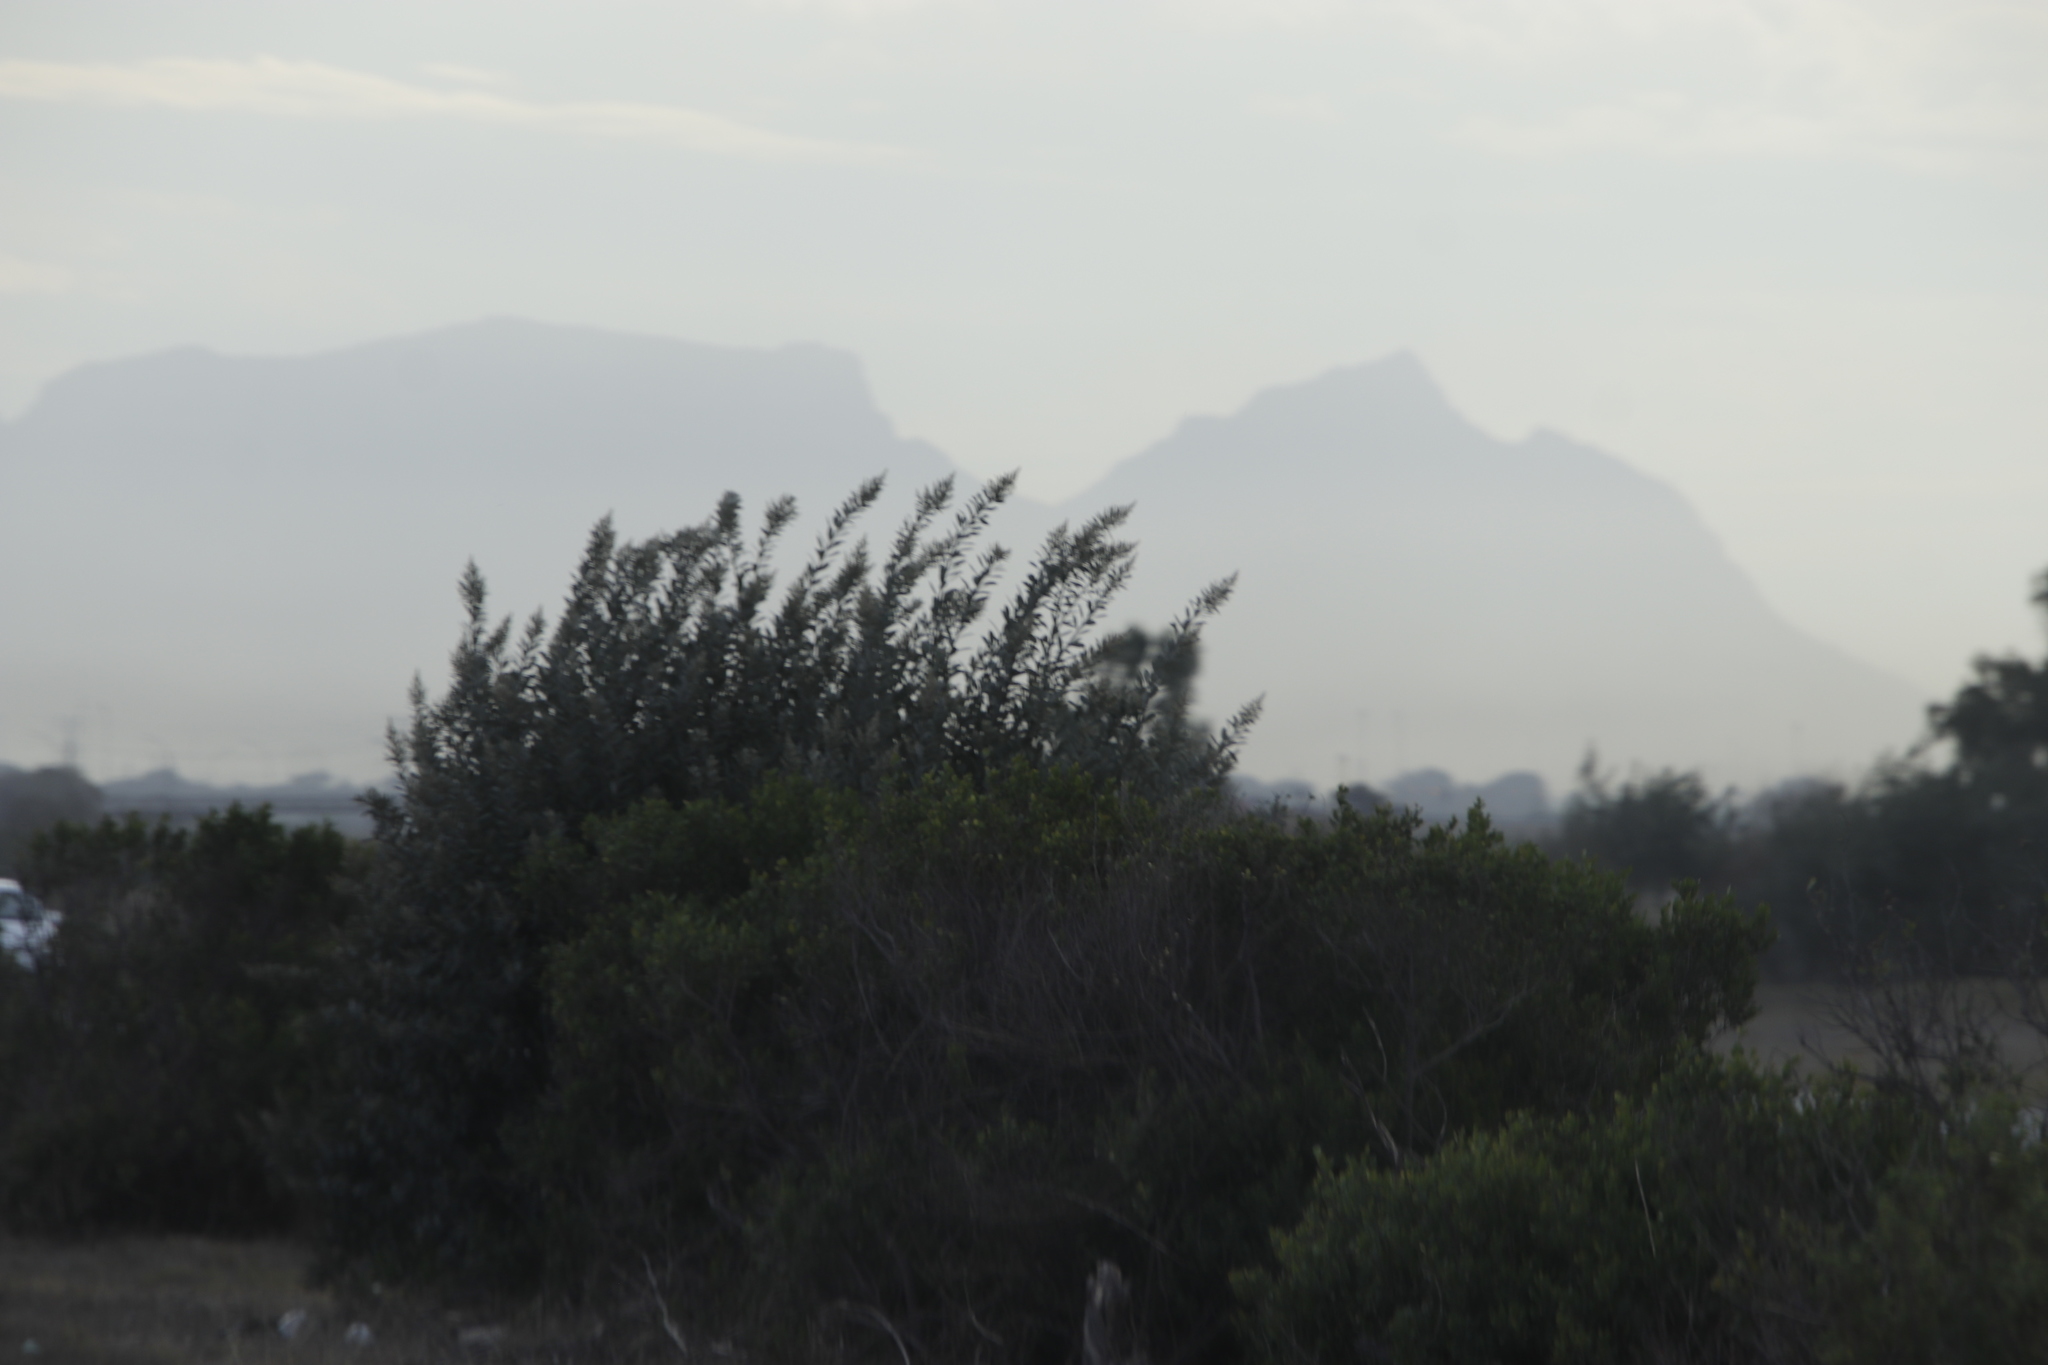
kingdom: Plantae
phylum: Tracheophyta
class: Magnoliopsida
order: Asterales
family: Asteraceae
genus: Brachylaena
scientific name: Brachylaena discolor
